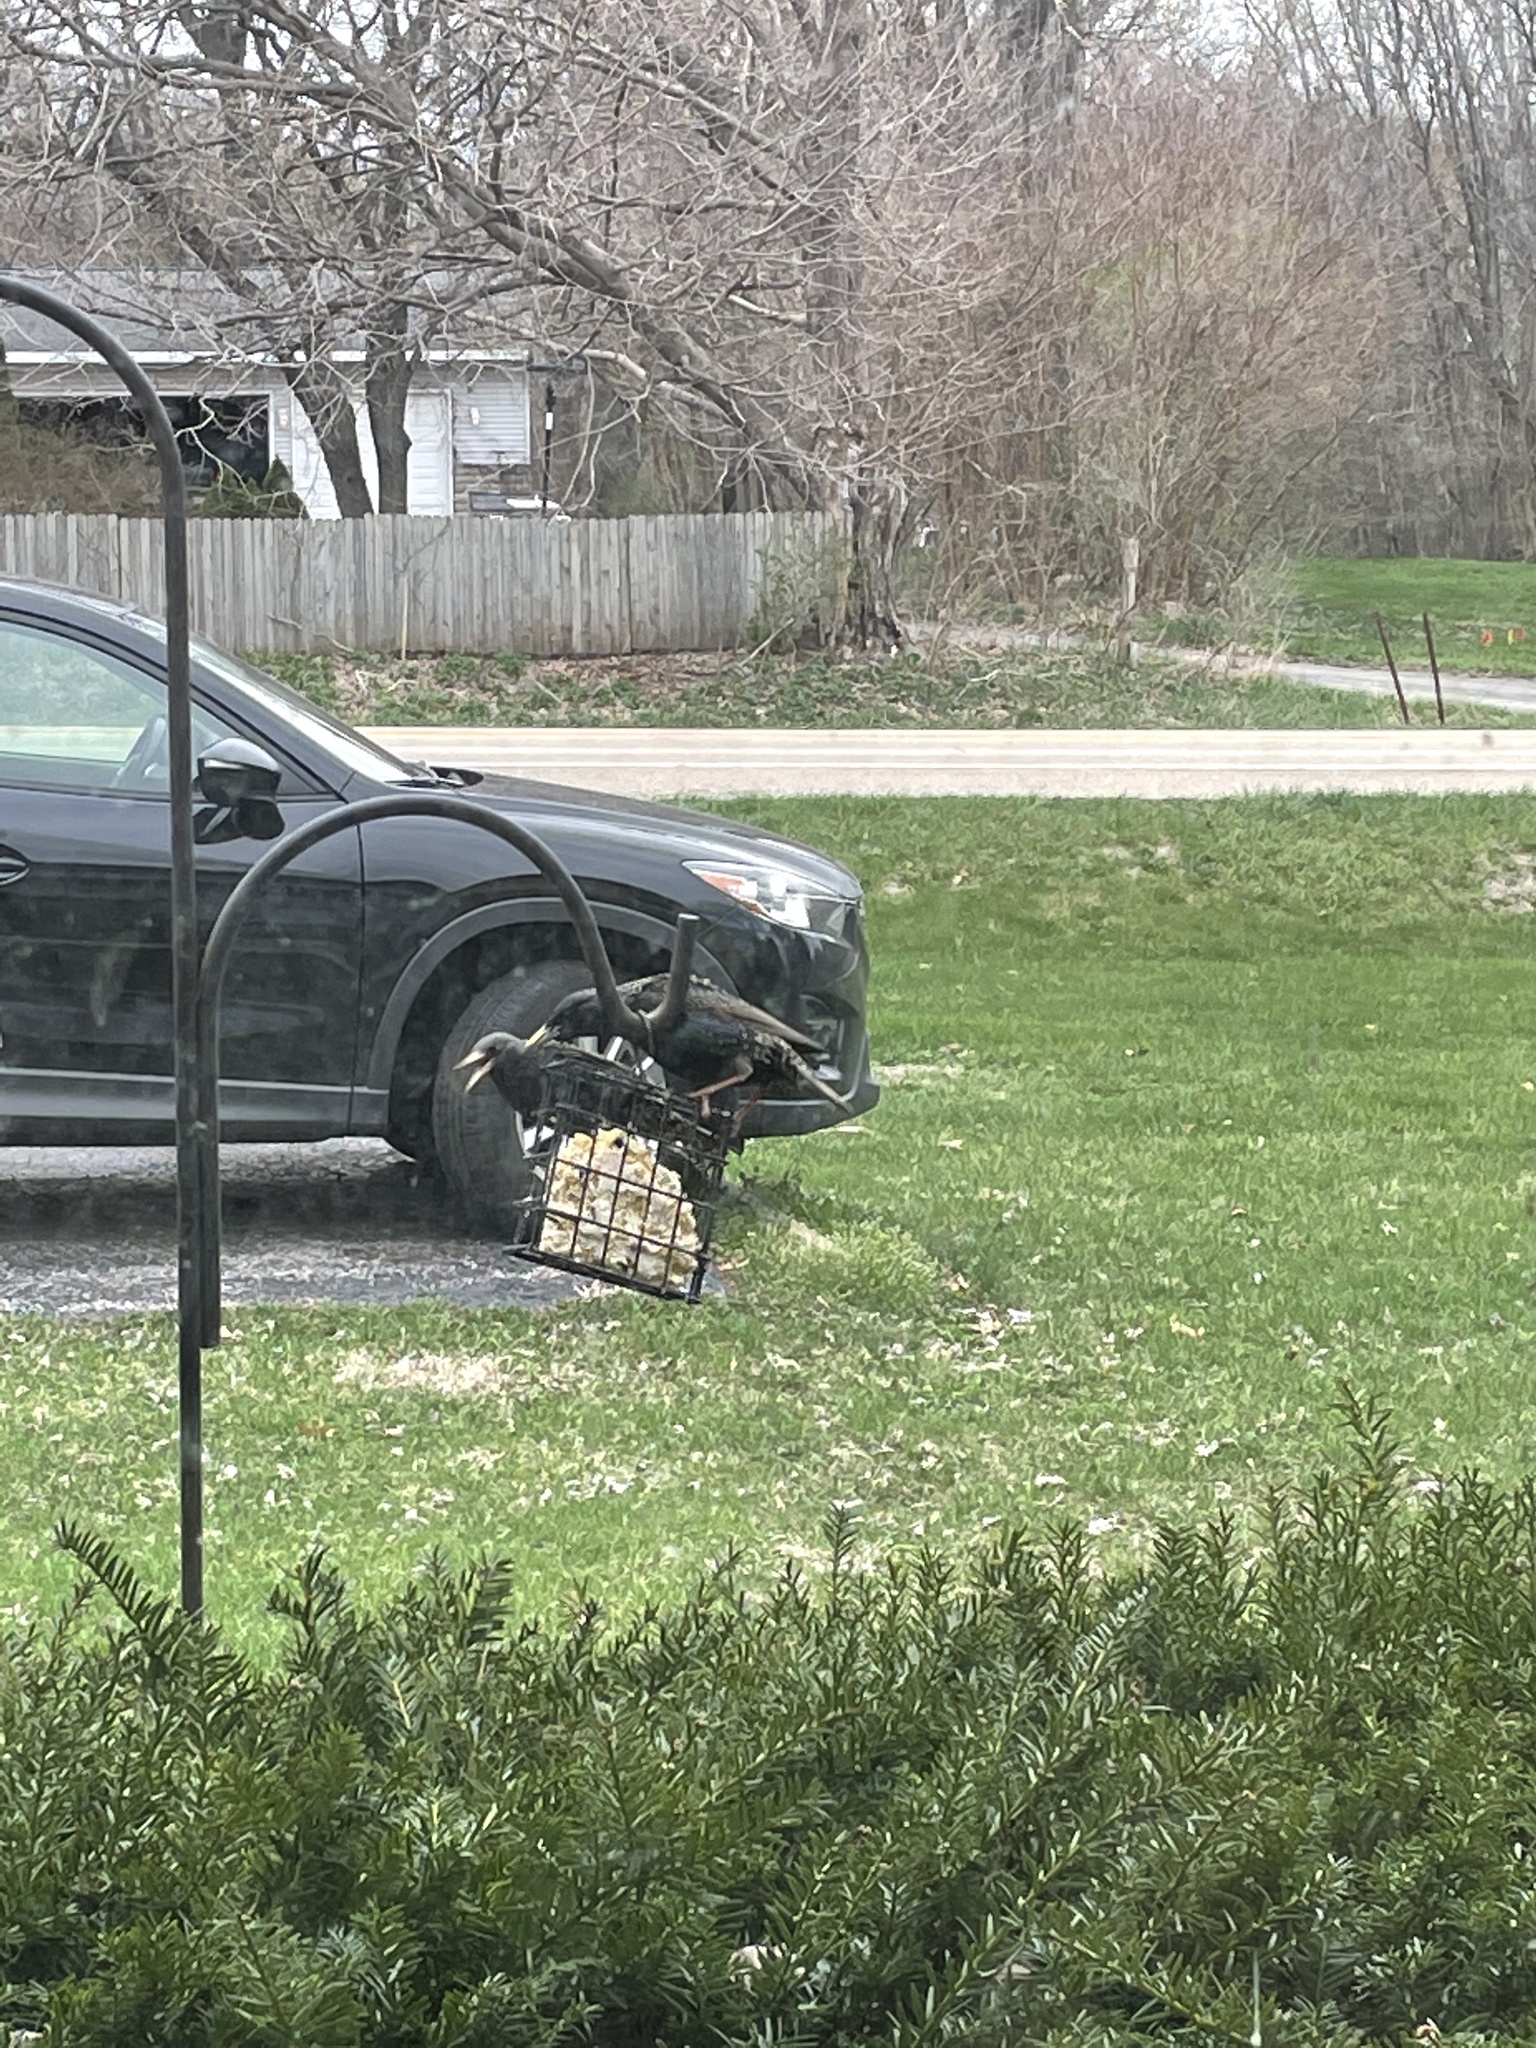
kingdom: Animalia
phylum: Chordata
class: Aves
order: Passeriformes
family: Sturnidae
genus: Sturnus
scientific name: Sturnus vulgaris
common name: Common starling
